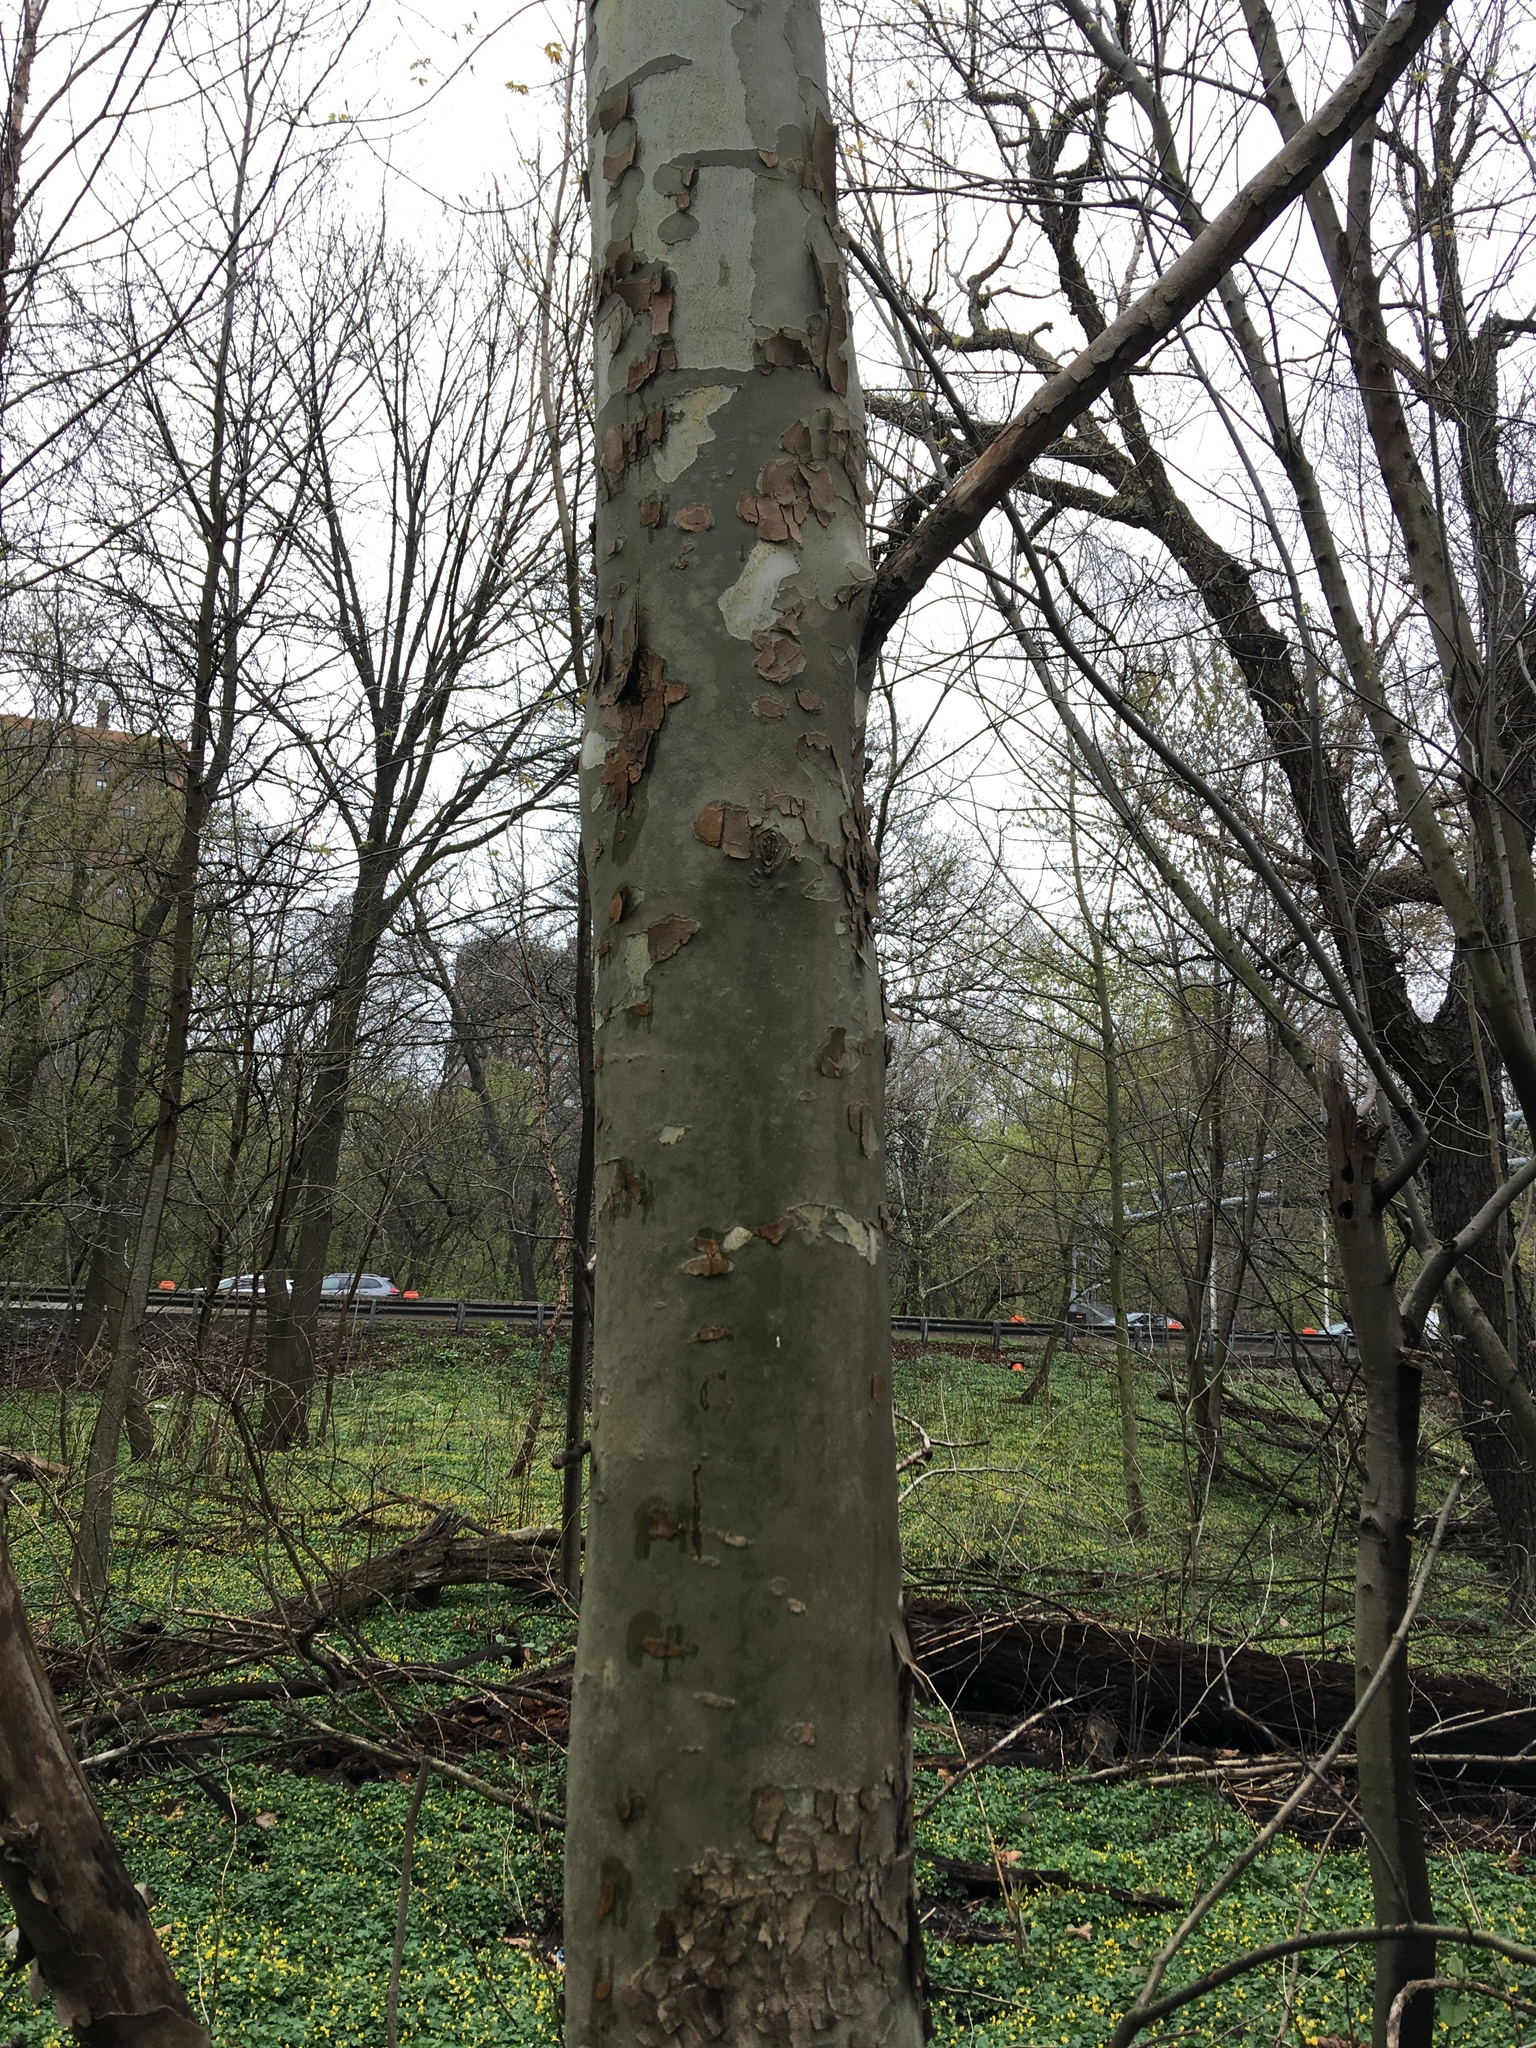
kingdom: Plantae
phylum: Tracheophyta
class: Magnoliopsida
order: Proteales
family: Platanaceae
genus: Platanus
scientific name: Platanus occidentalis
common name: American sycamore
